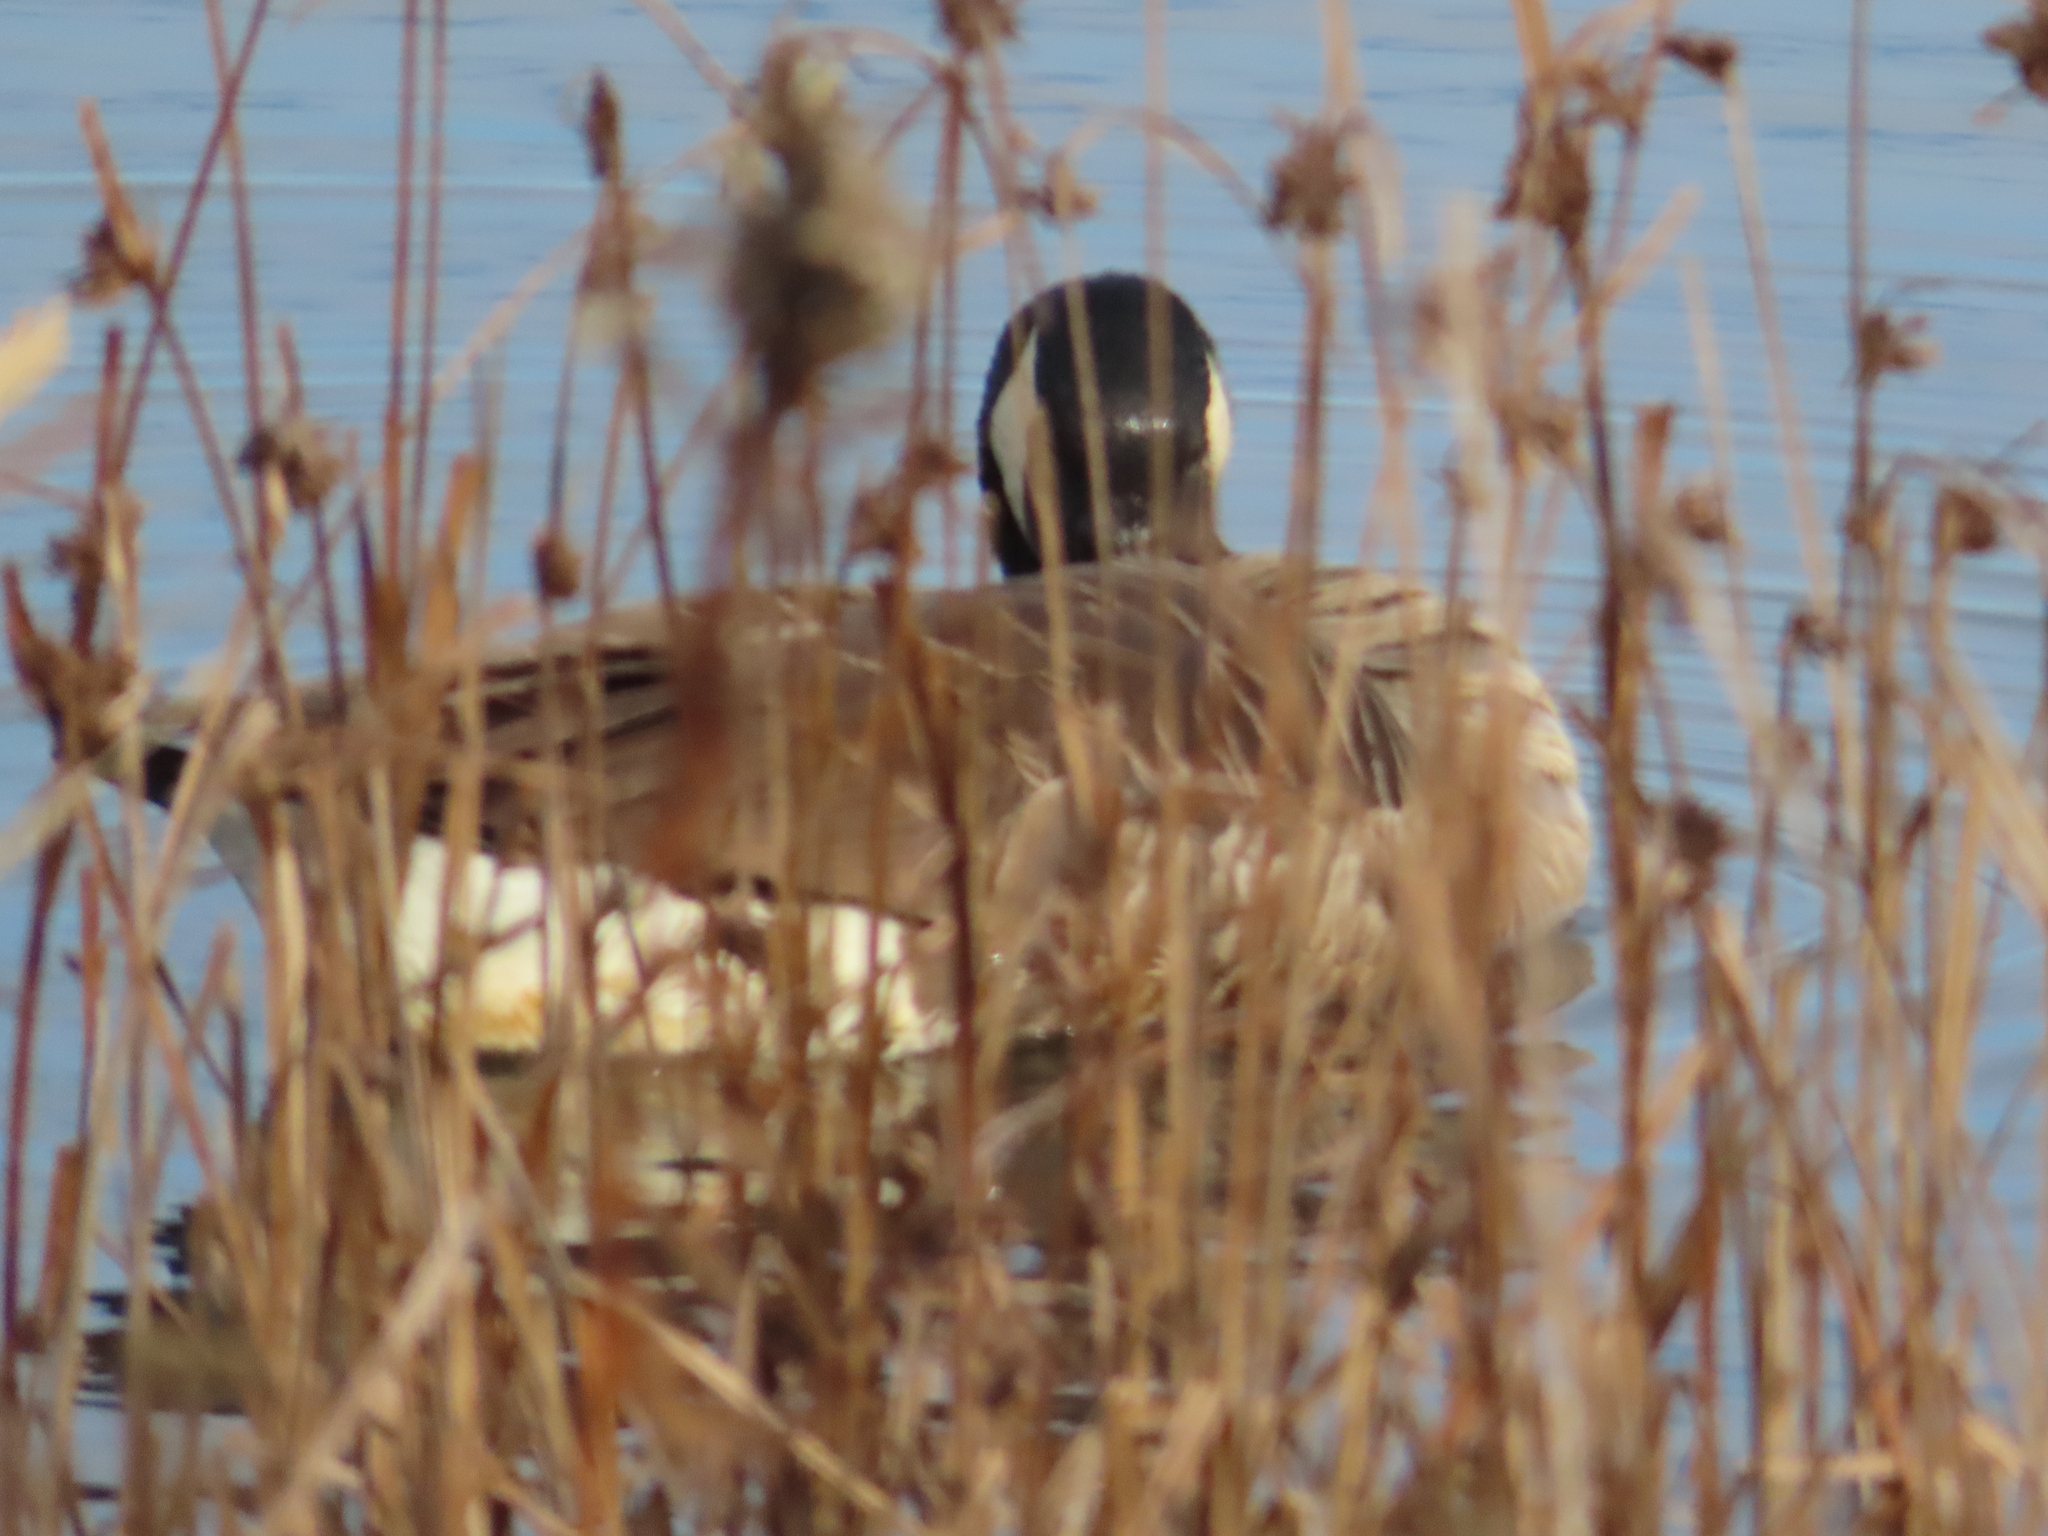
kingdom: Animalia
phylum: Chordata
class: Aves
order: Anseriformes
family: Anatidae
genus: Branta
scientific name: Branta canadensis
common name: Canada goose
